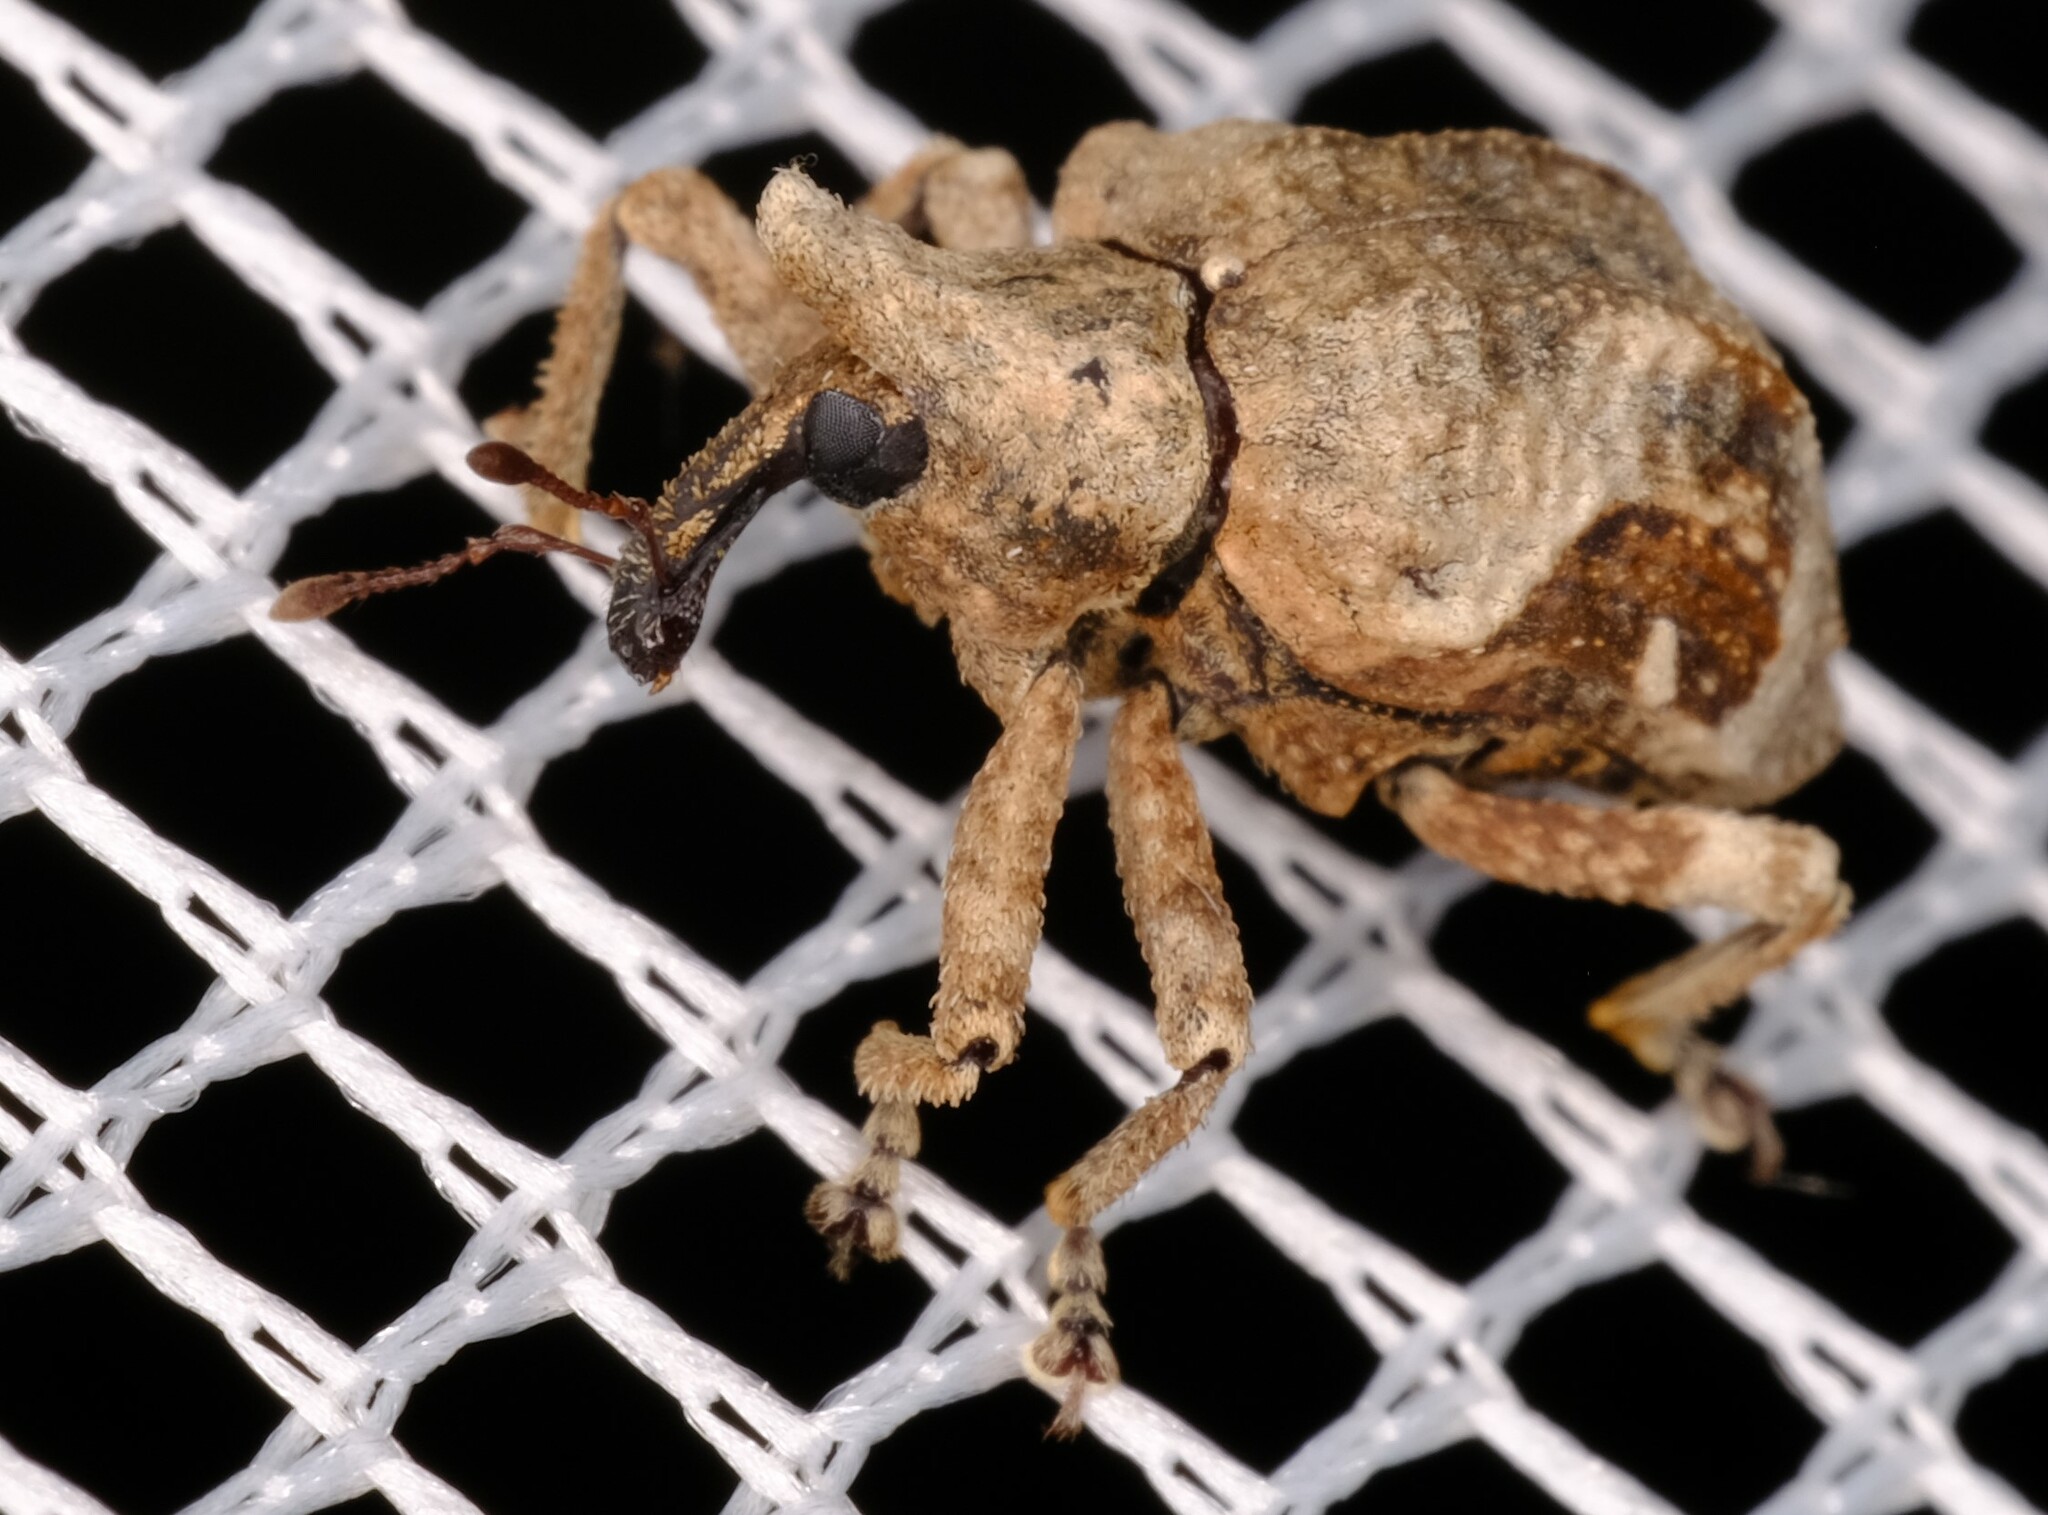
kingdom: Animalia
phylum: Arthropoda
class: Insecta
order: Coleoptera
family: Curculionidae
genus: Oemethylus
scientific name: Oemethylus
